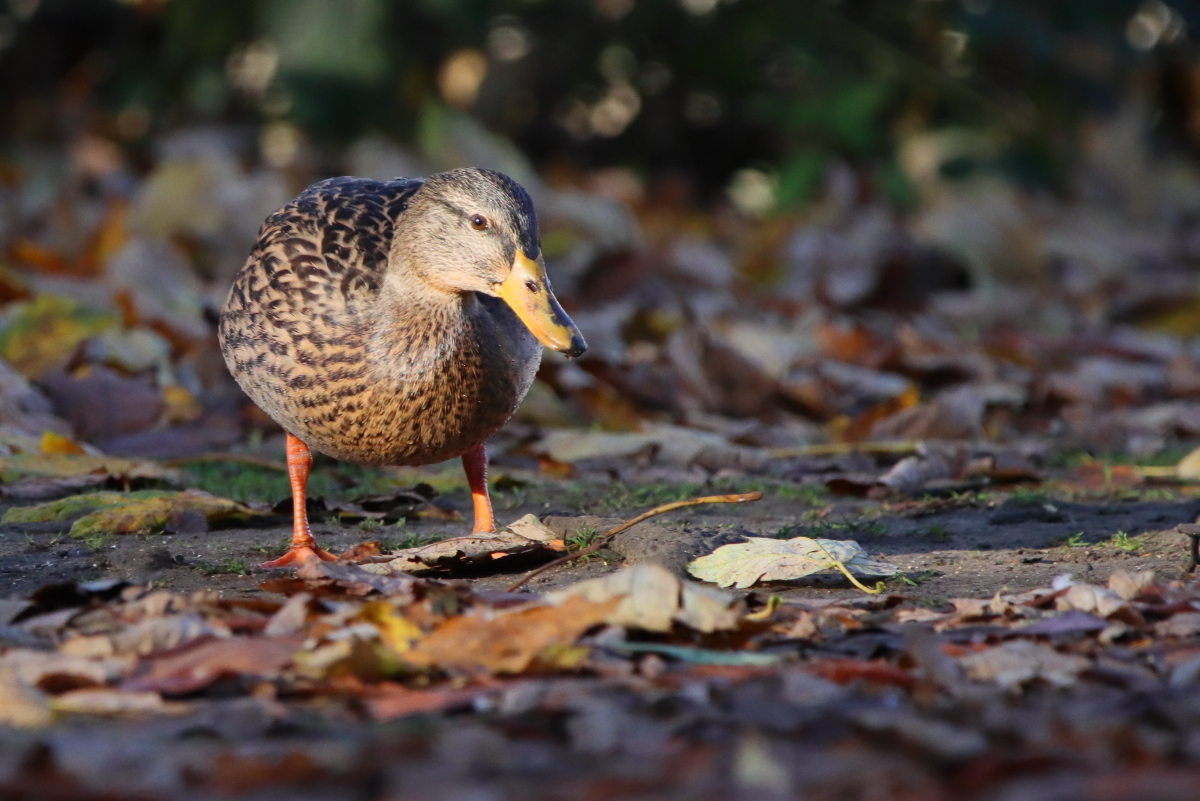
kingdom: Animalia
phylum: Chordata
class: Aves
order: Anseriformes
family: Anatidae
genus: Anas
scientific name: Anas platyrhynchos
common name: Mallard
